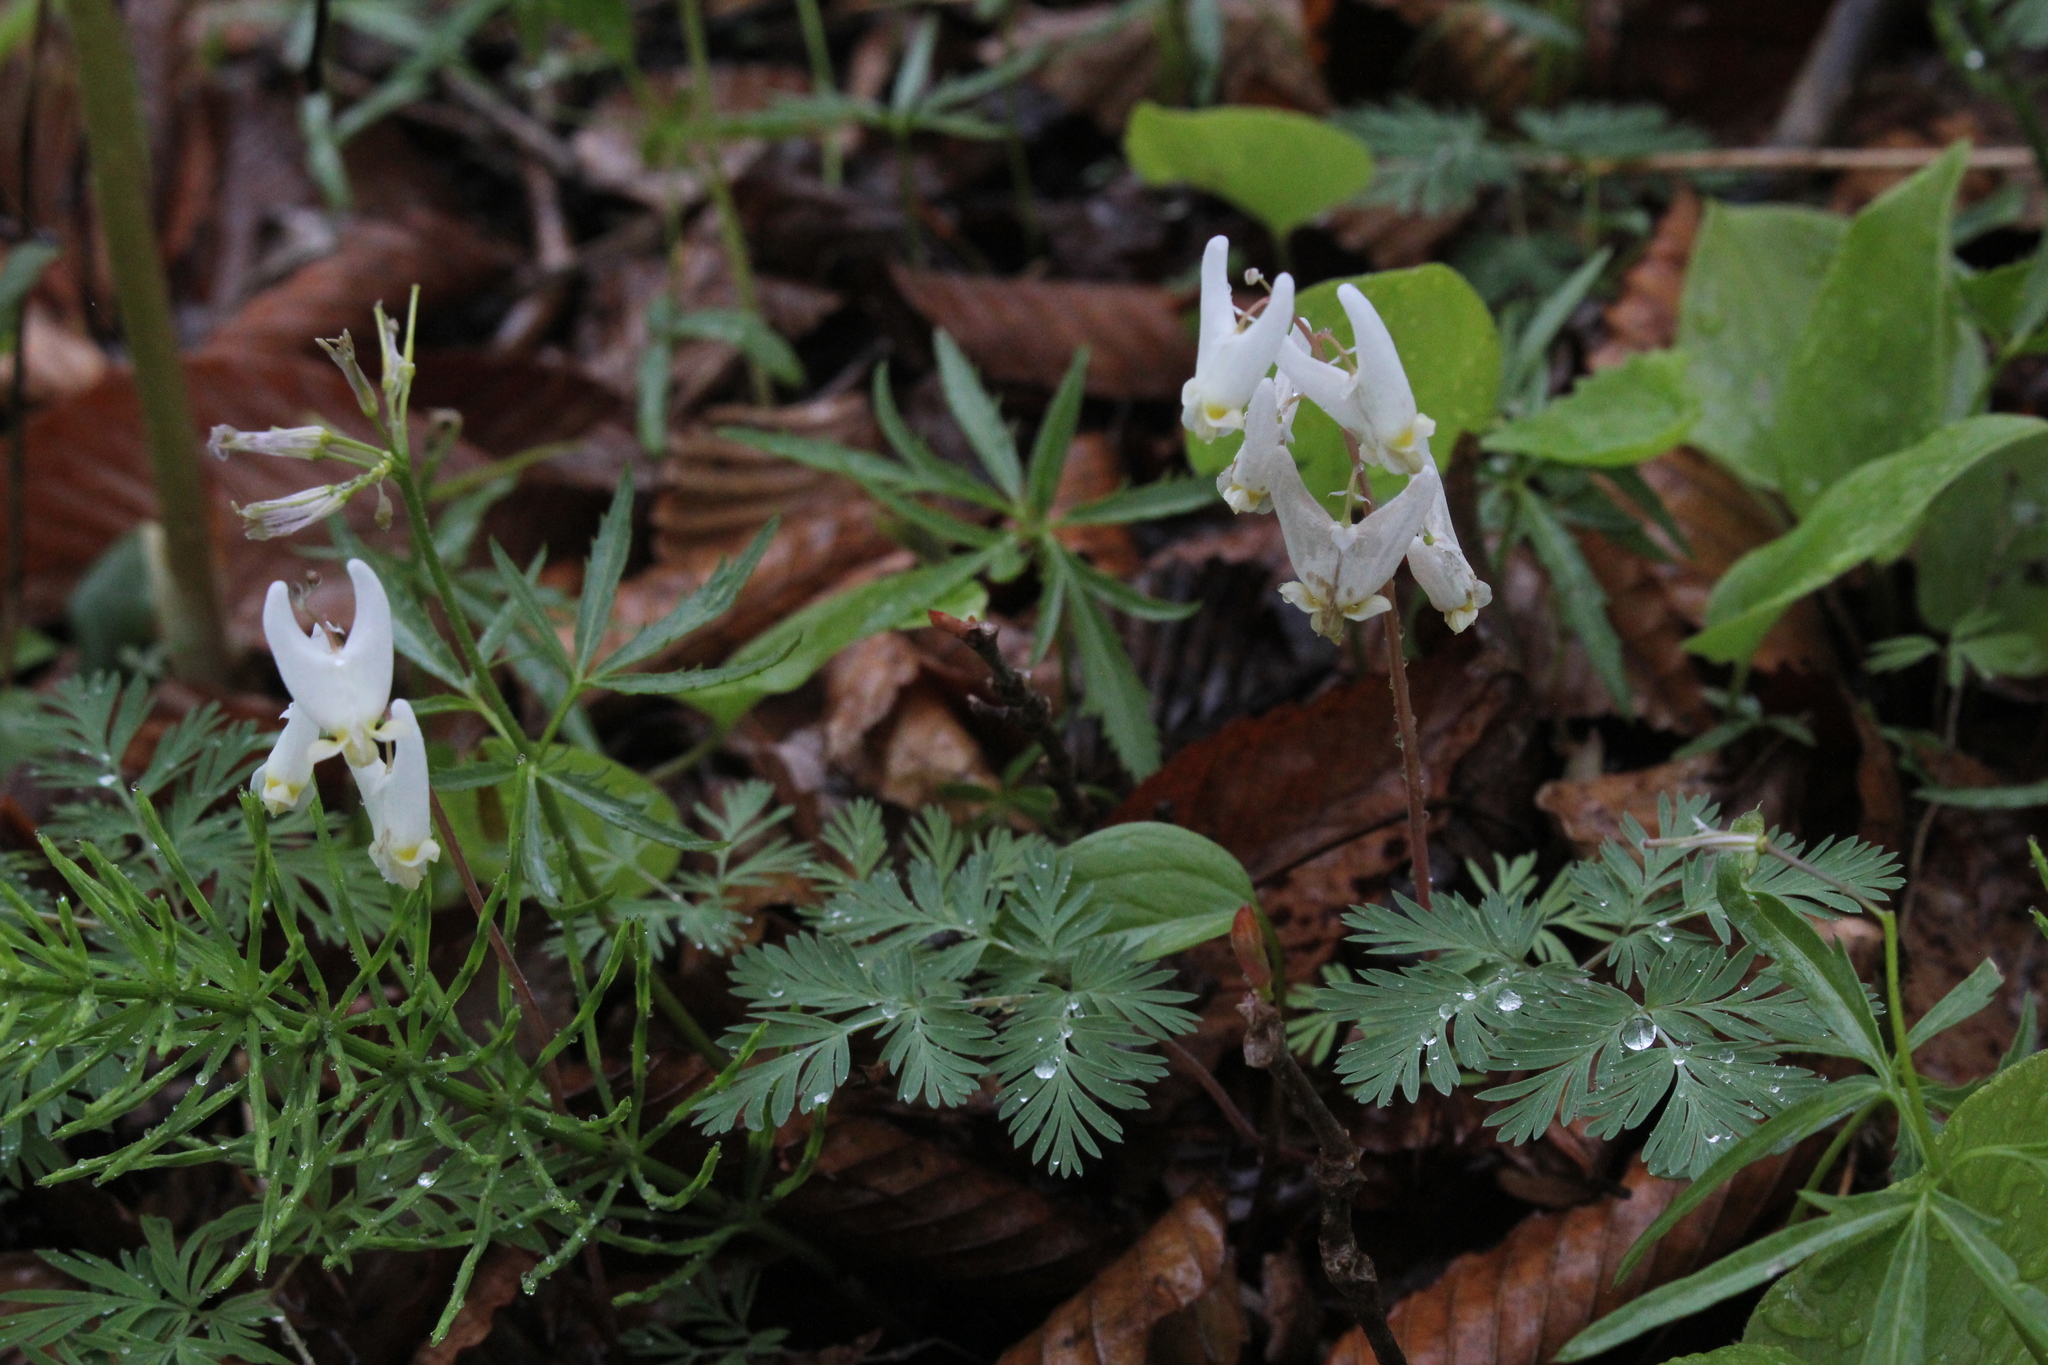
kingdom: Plantae
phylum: Tracheophyta
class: Magnoliopsida
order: Ranunculales
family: Papaveraceae
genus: Dicentra
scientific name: Dicentra cucullaria
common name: Dutchman's breeches
